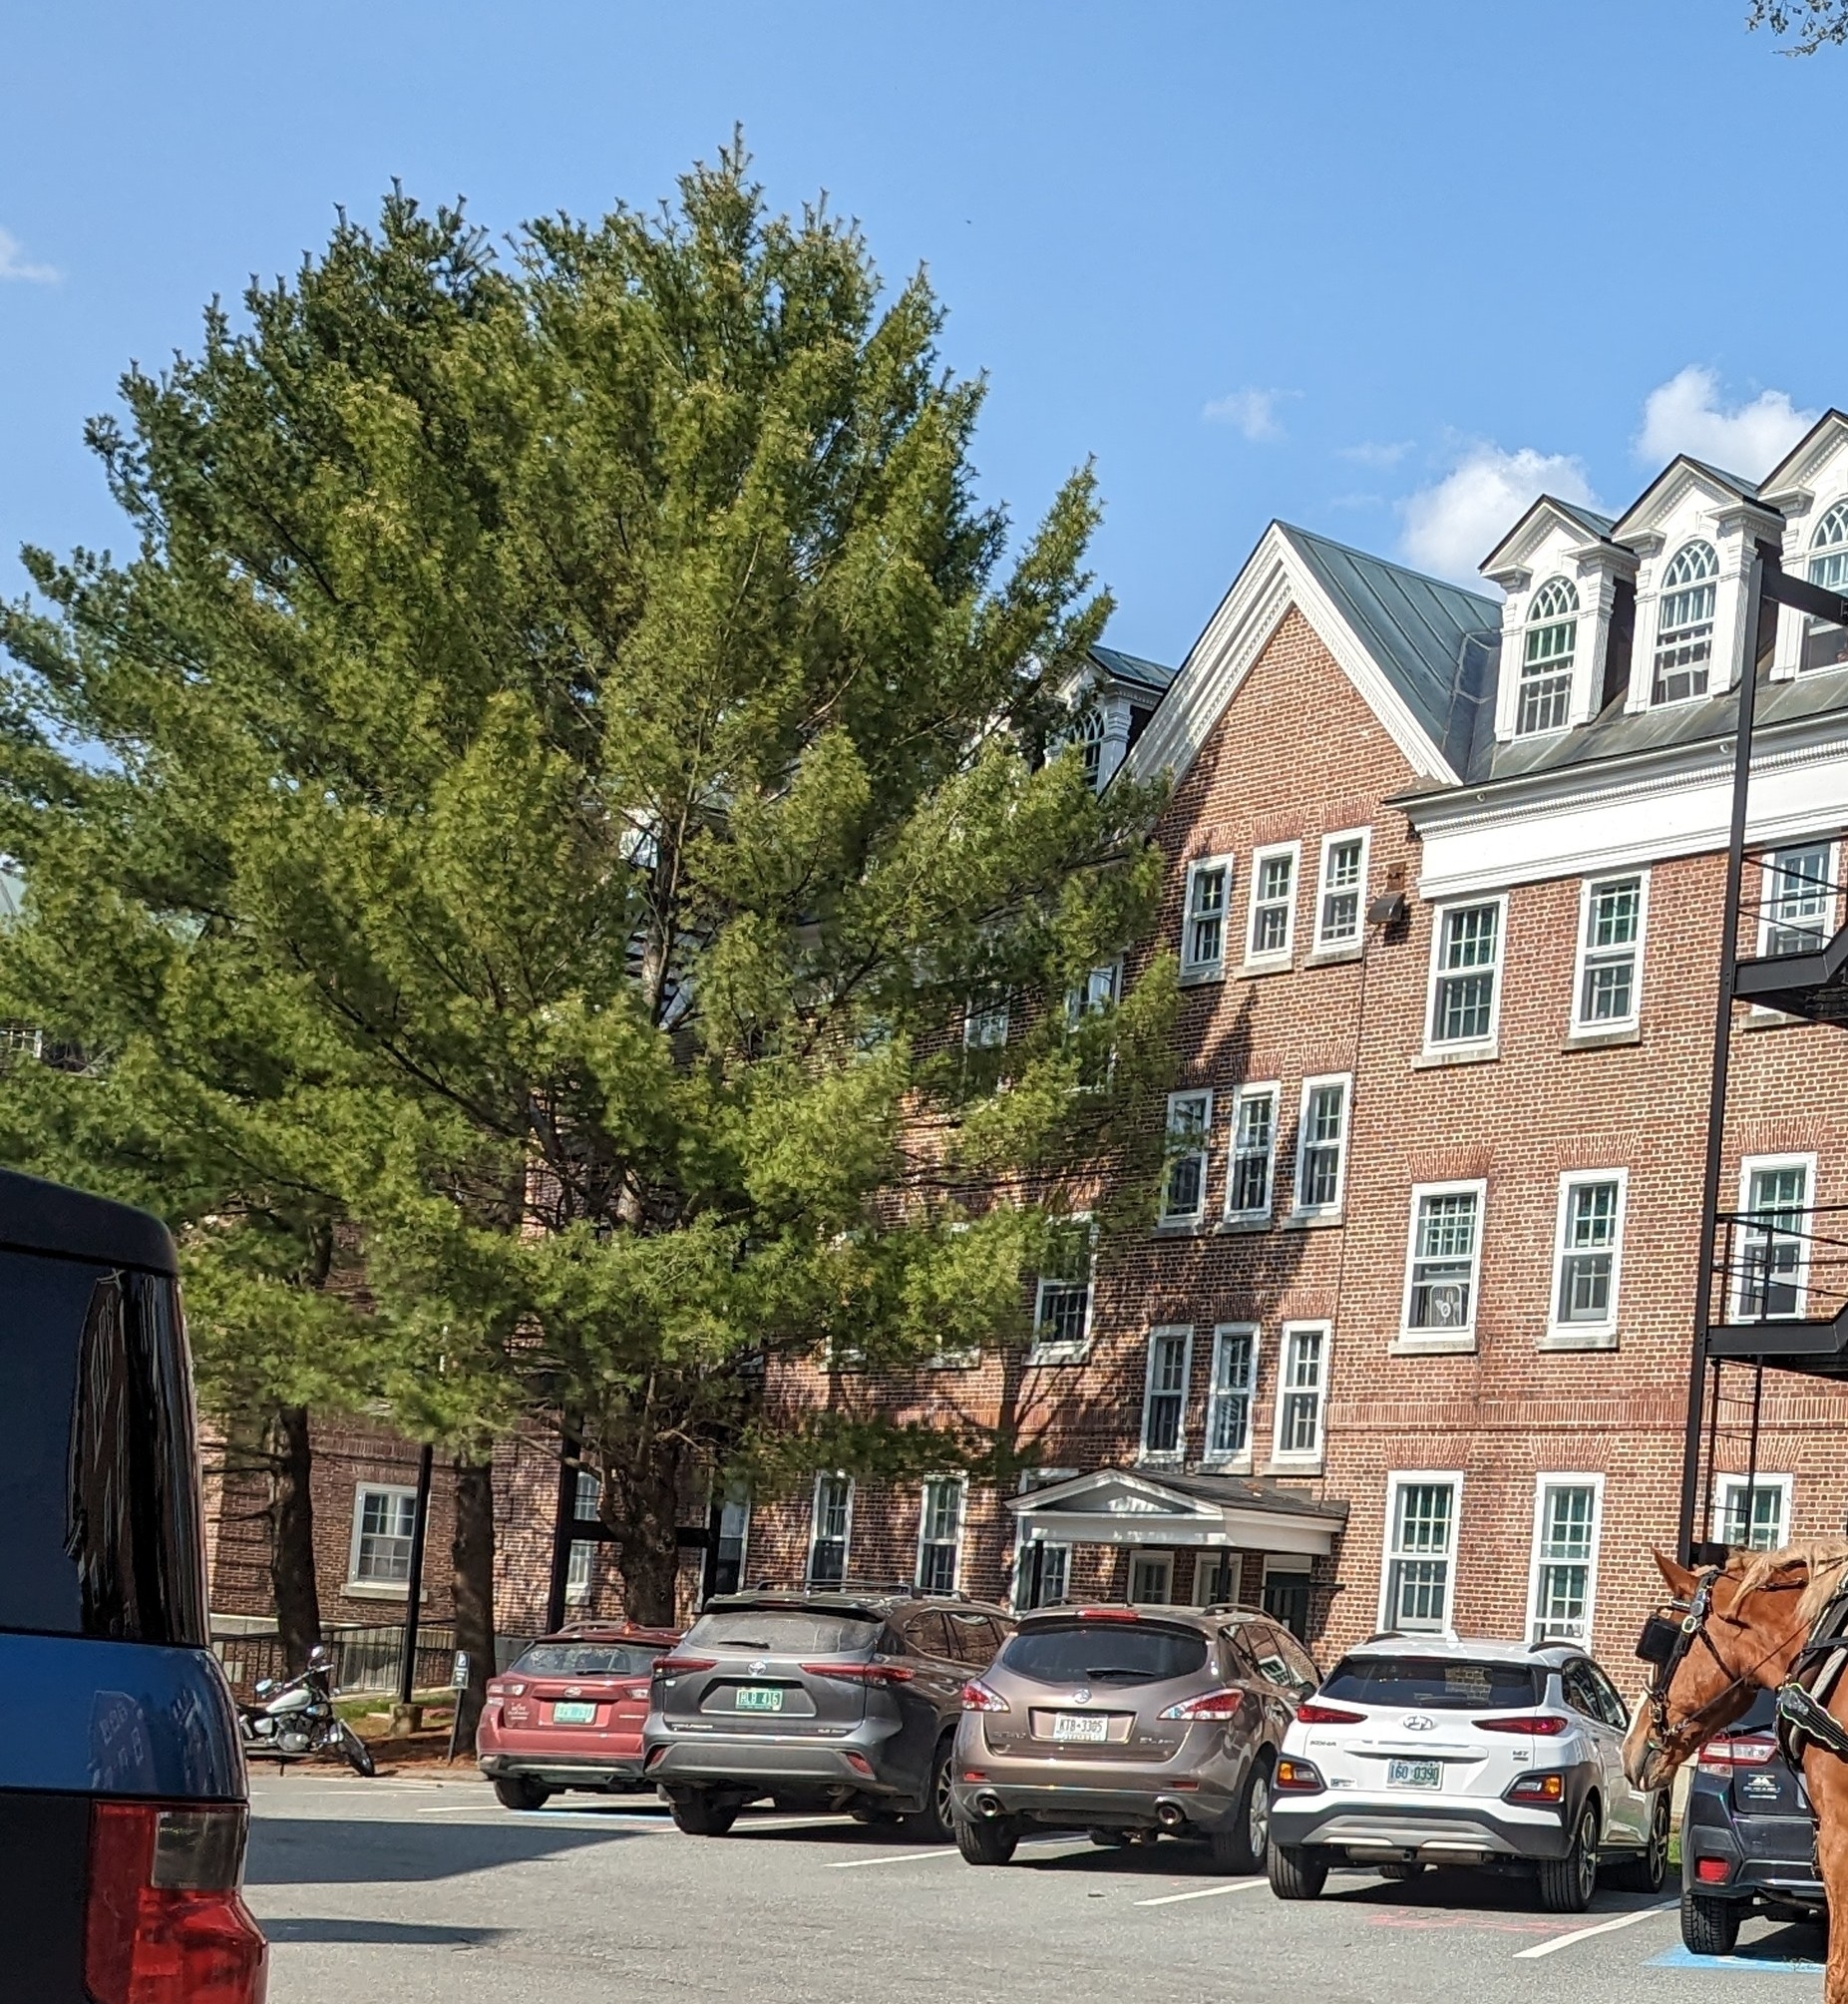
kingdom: Plantae
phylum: Tracheophyta
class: Pinopsida
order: Pinales
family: Pinaceae
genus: Pinus
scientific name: Pinus strobus
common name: Weymouth pine
